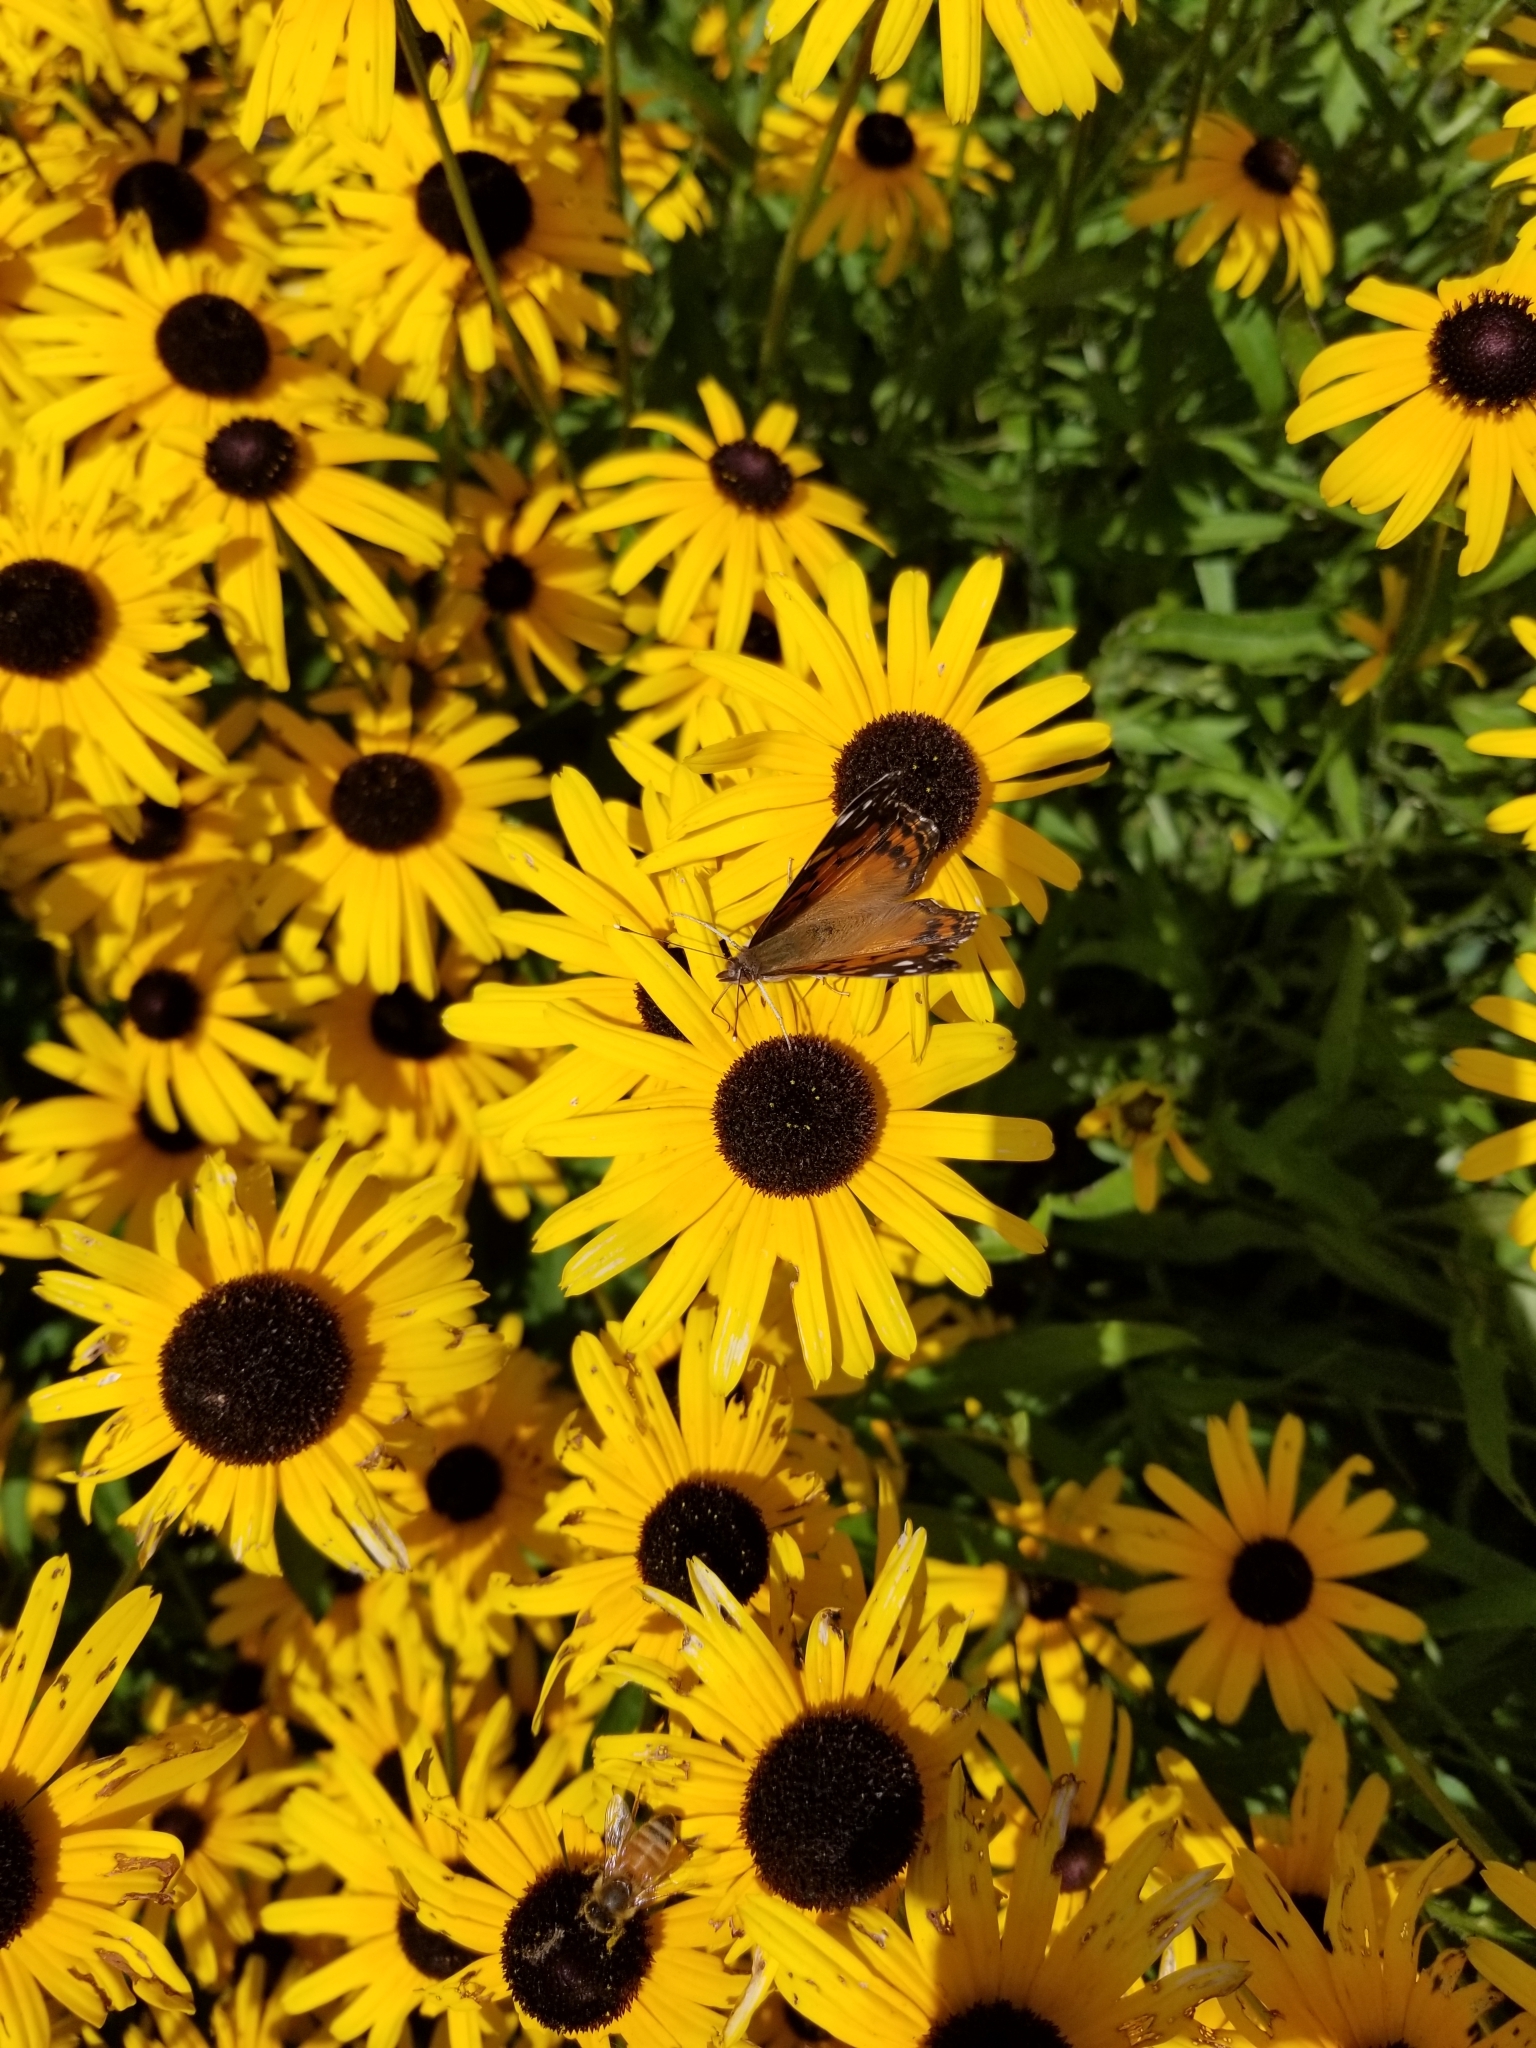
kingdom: Animalia
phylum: Arthropoda
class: Insecta
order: Lepidoptera
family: Nymphalidae
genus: Vanessa
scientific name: Vanessa virginiensis
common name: American lady
